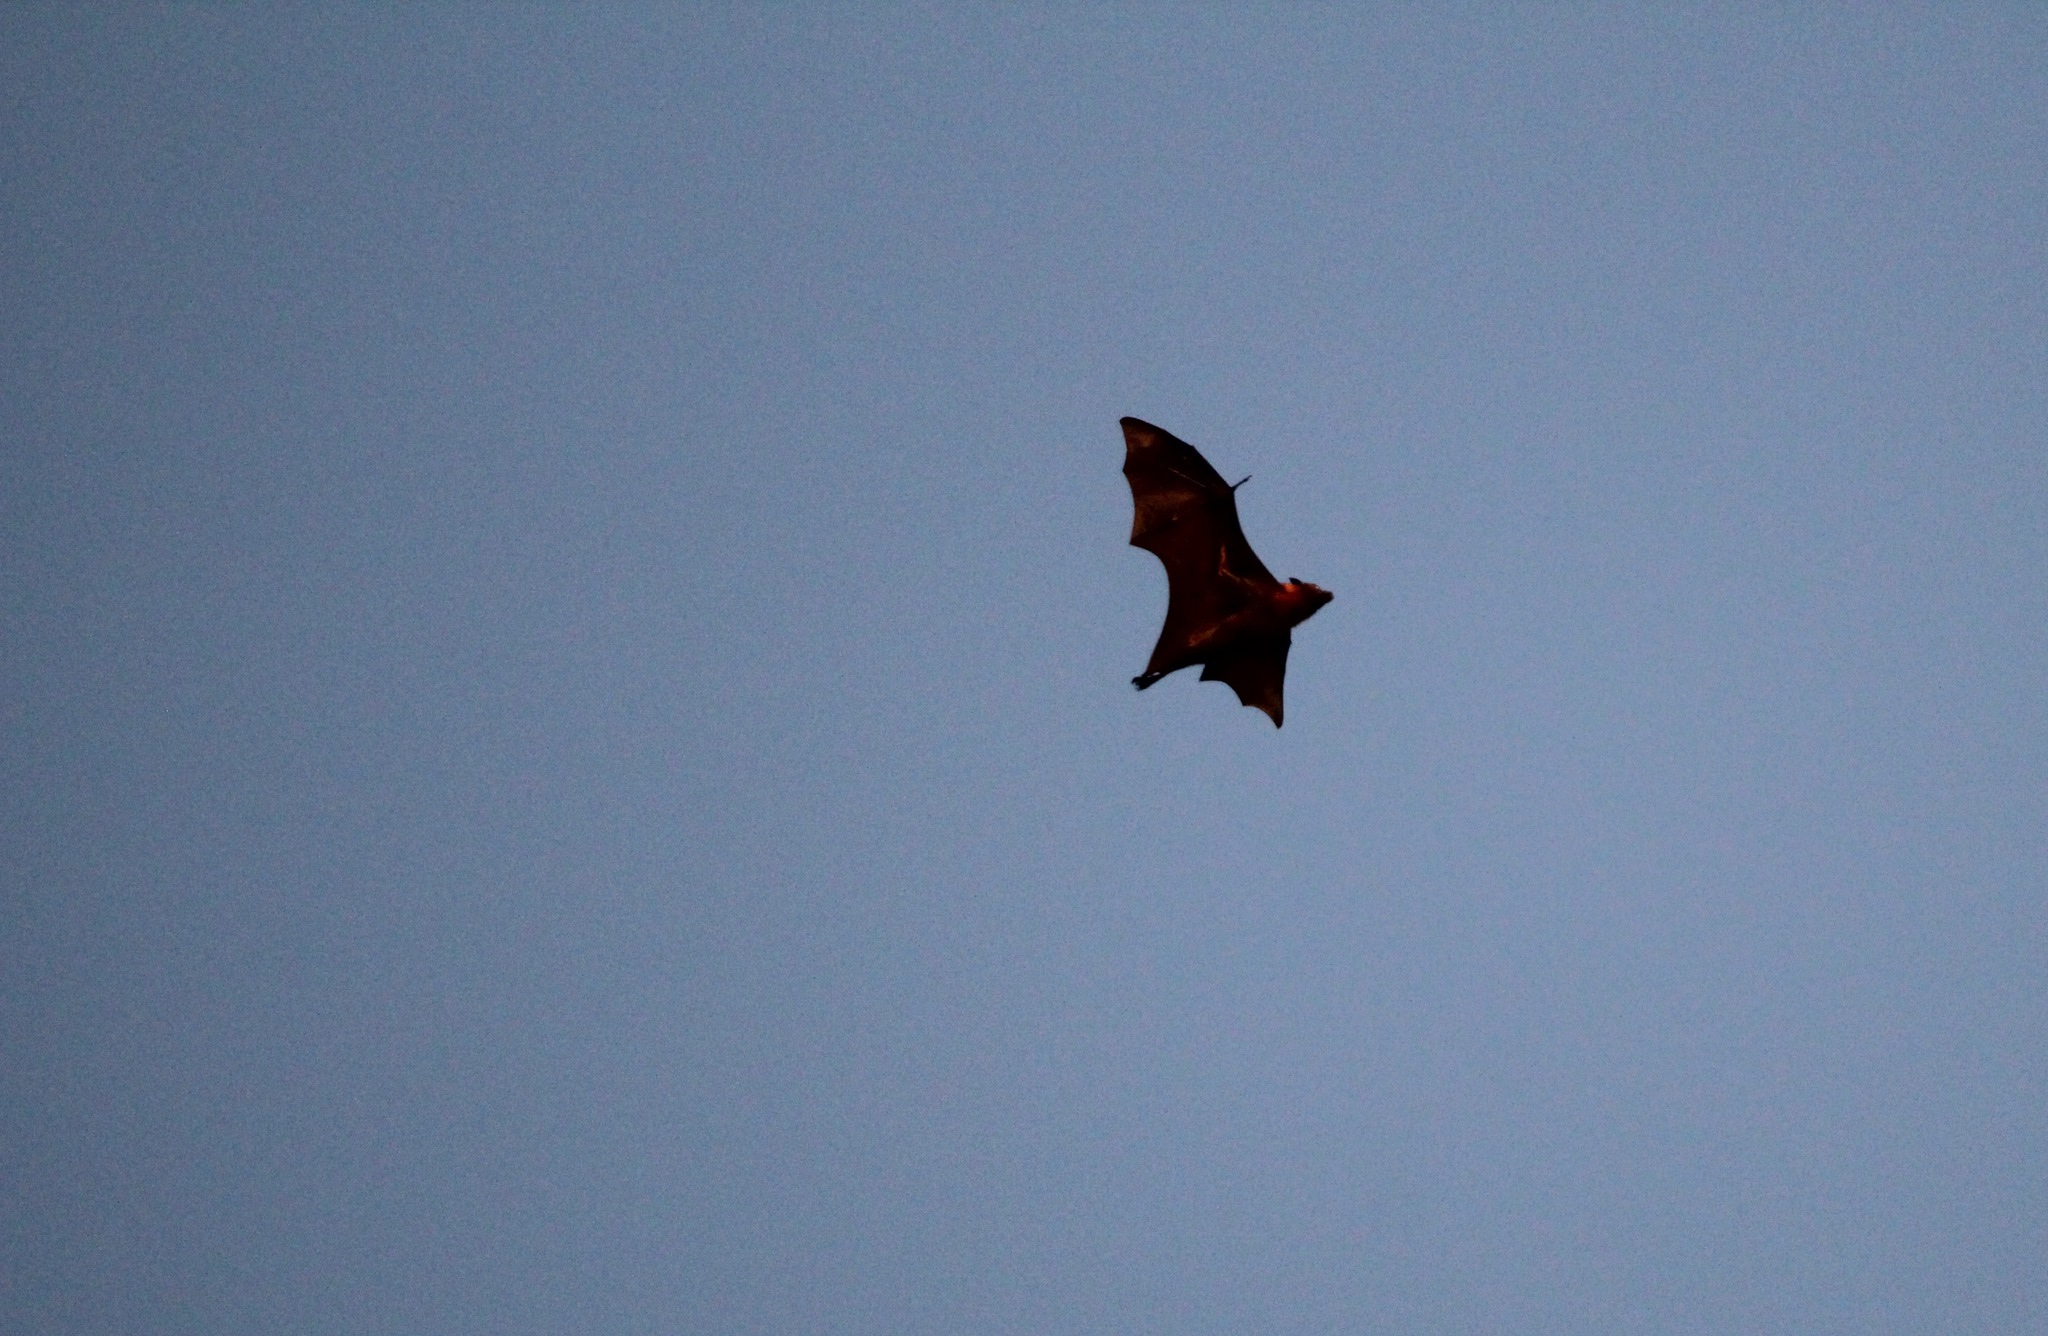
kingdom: Animalia
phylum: Chordata
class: Mammalia
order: Chiroptera
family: Pteropodidae
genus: Pteropus
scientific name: Pteropus poliocephalus
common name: Gray-headed flying fox
